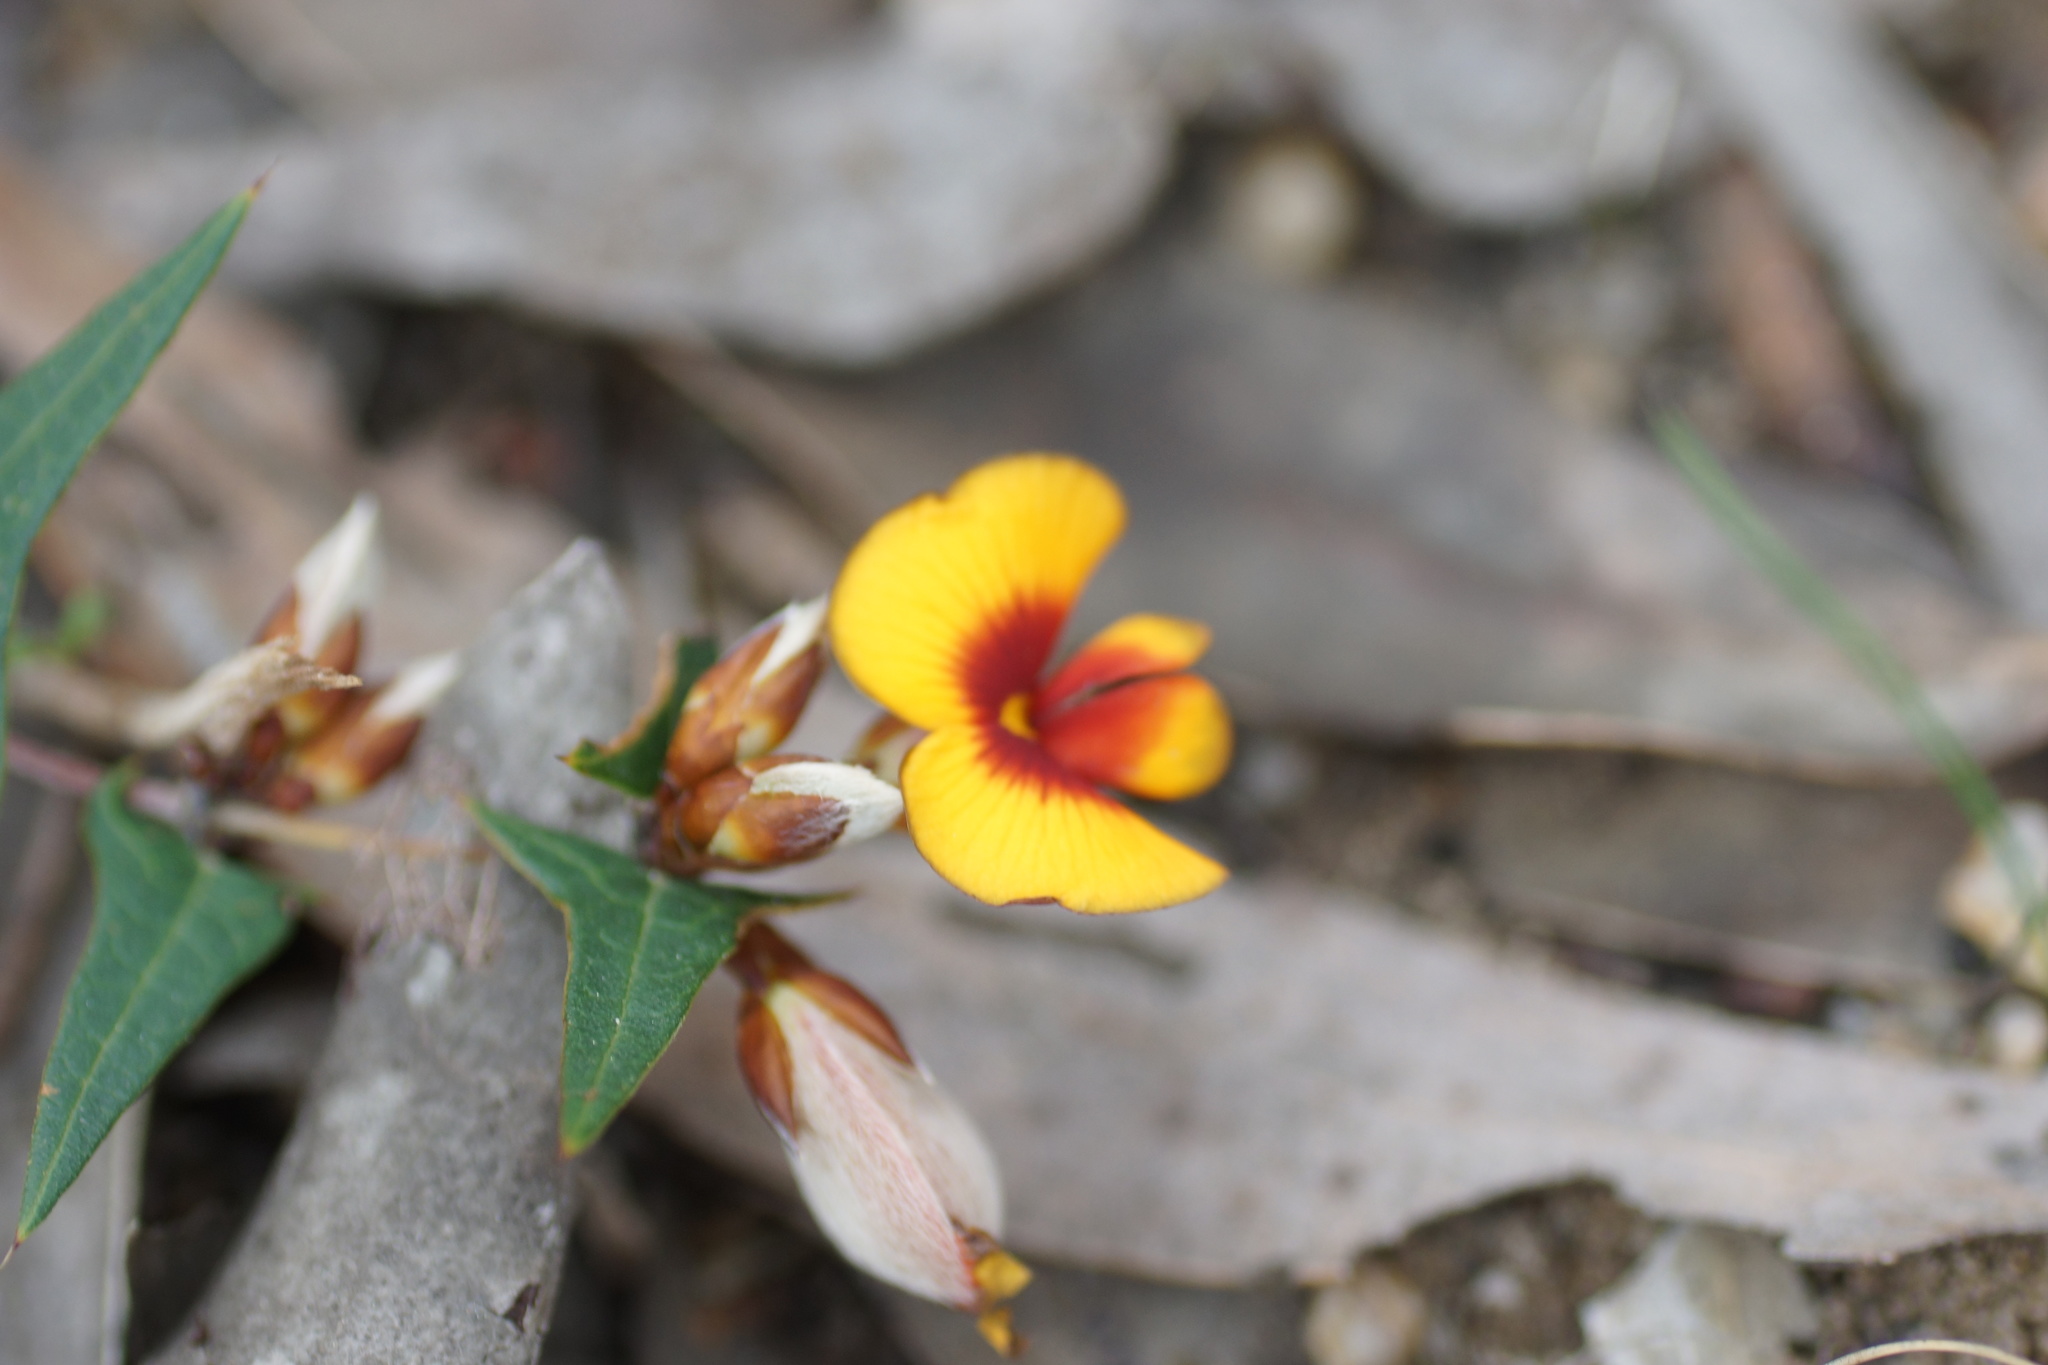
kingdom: Plantae
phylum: Tracheophyta
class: Magnoliopsida
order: Fabales
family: Fabaceae
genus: Platylobium
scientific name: Platylobium obtusangulum
